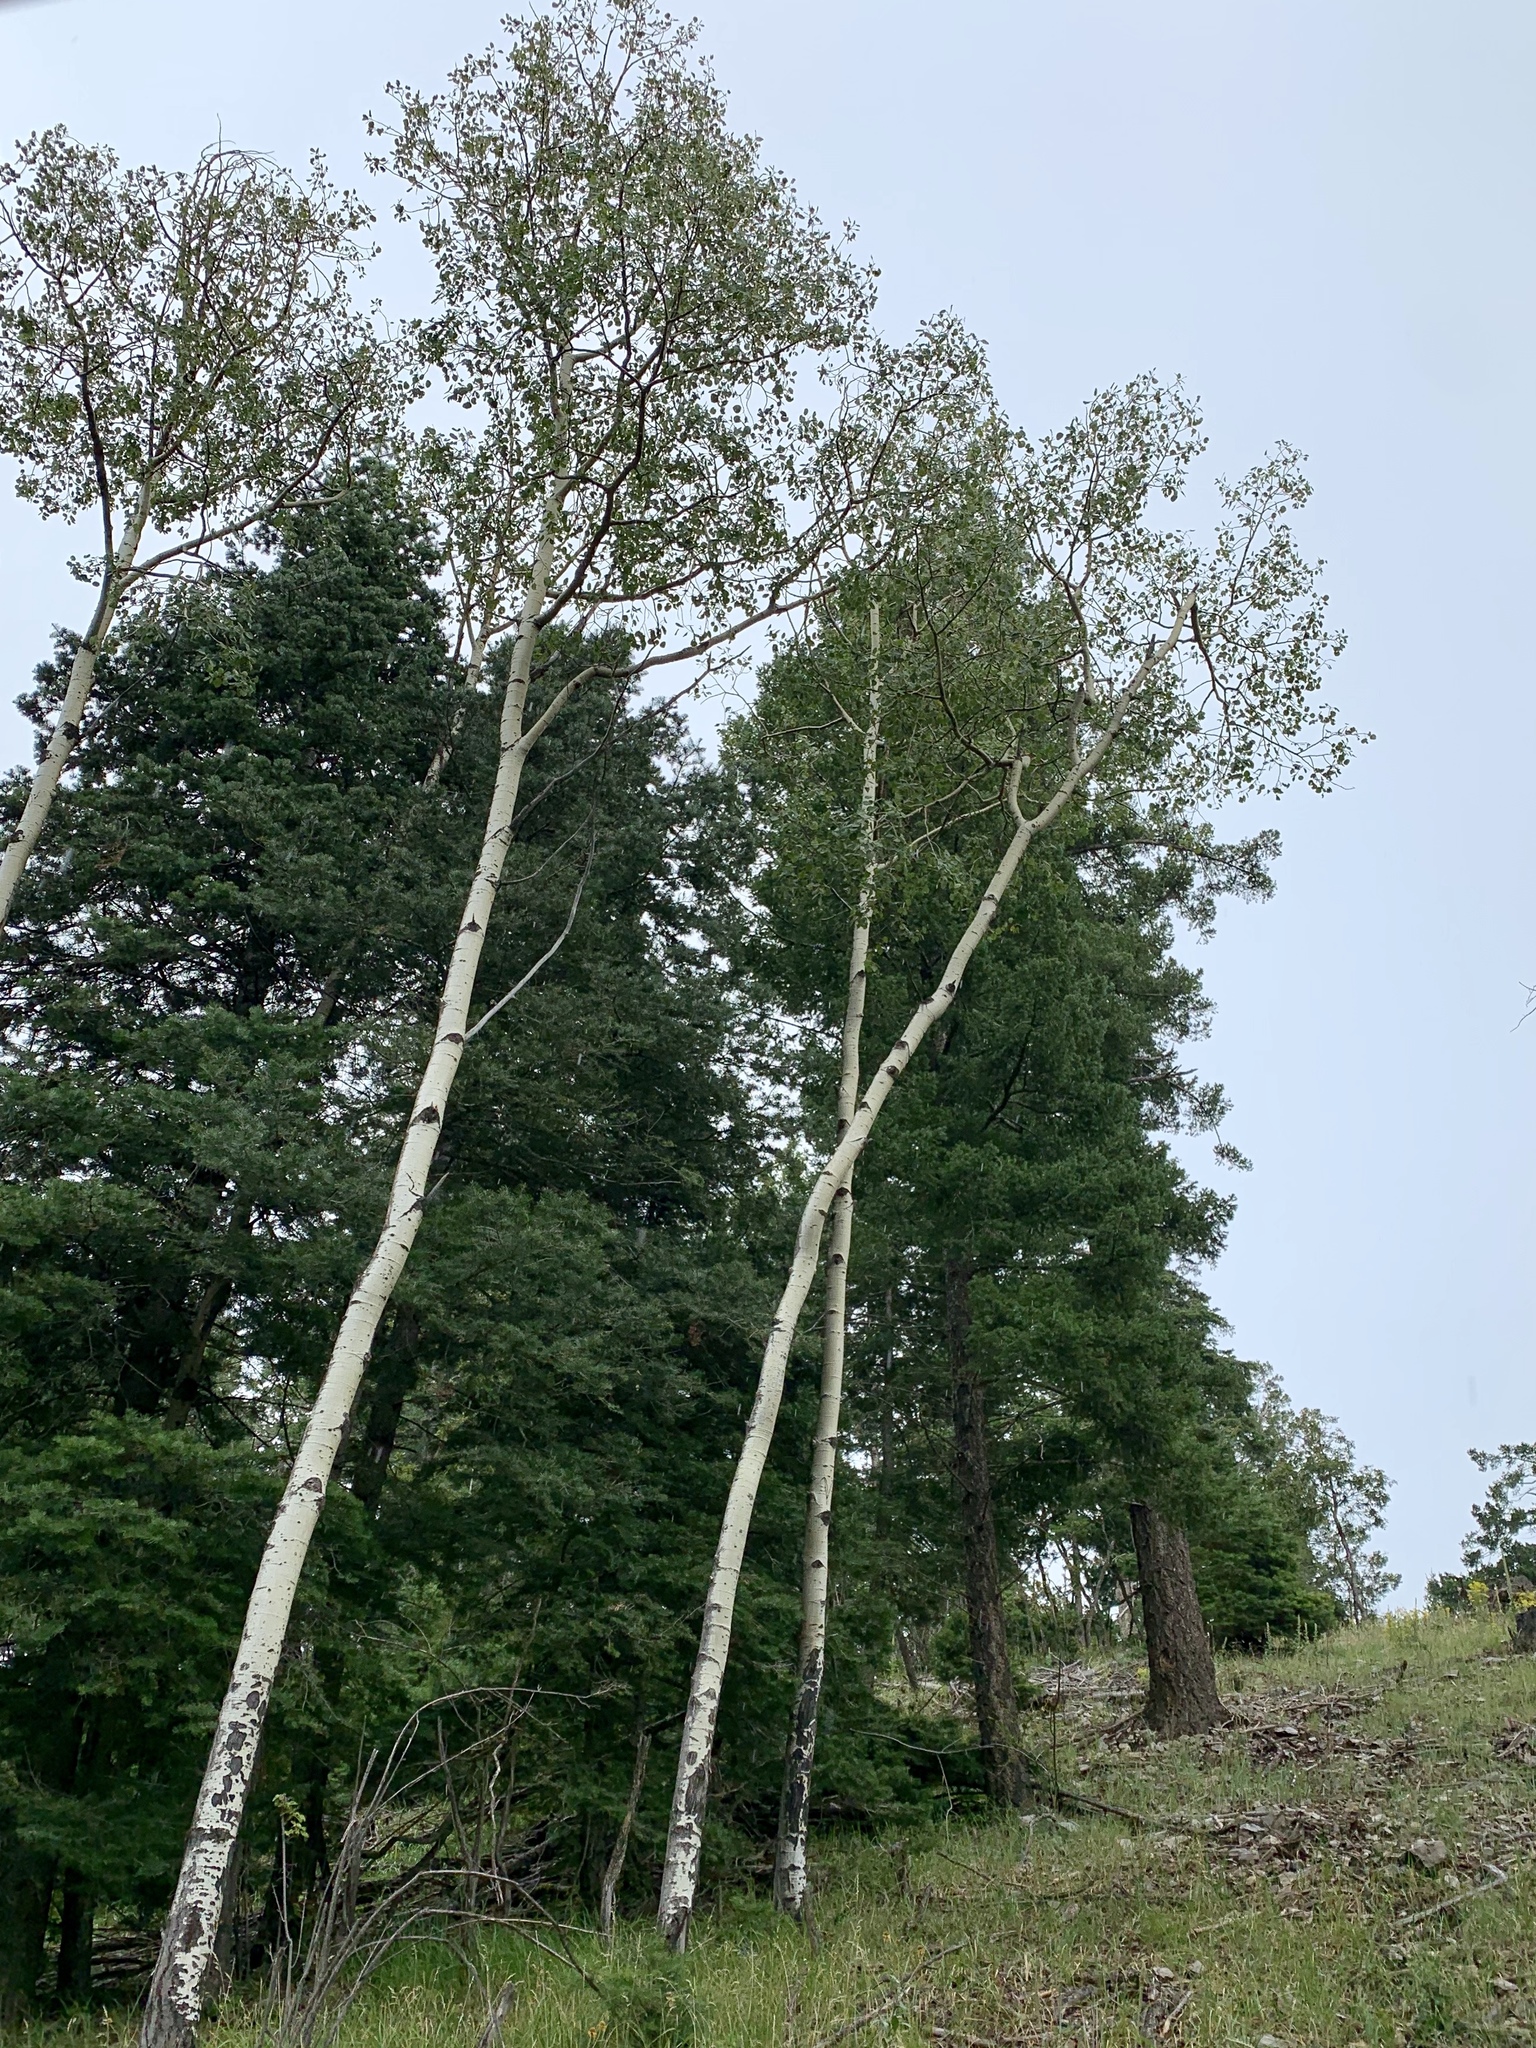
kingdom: Plantae
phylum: Tracheophyta
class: Magnoliopsida
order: Malpighiales
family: Salicaceae
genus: Populus
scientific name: Populus tremuloides
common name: Quaking aspen
